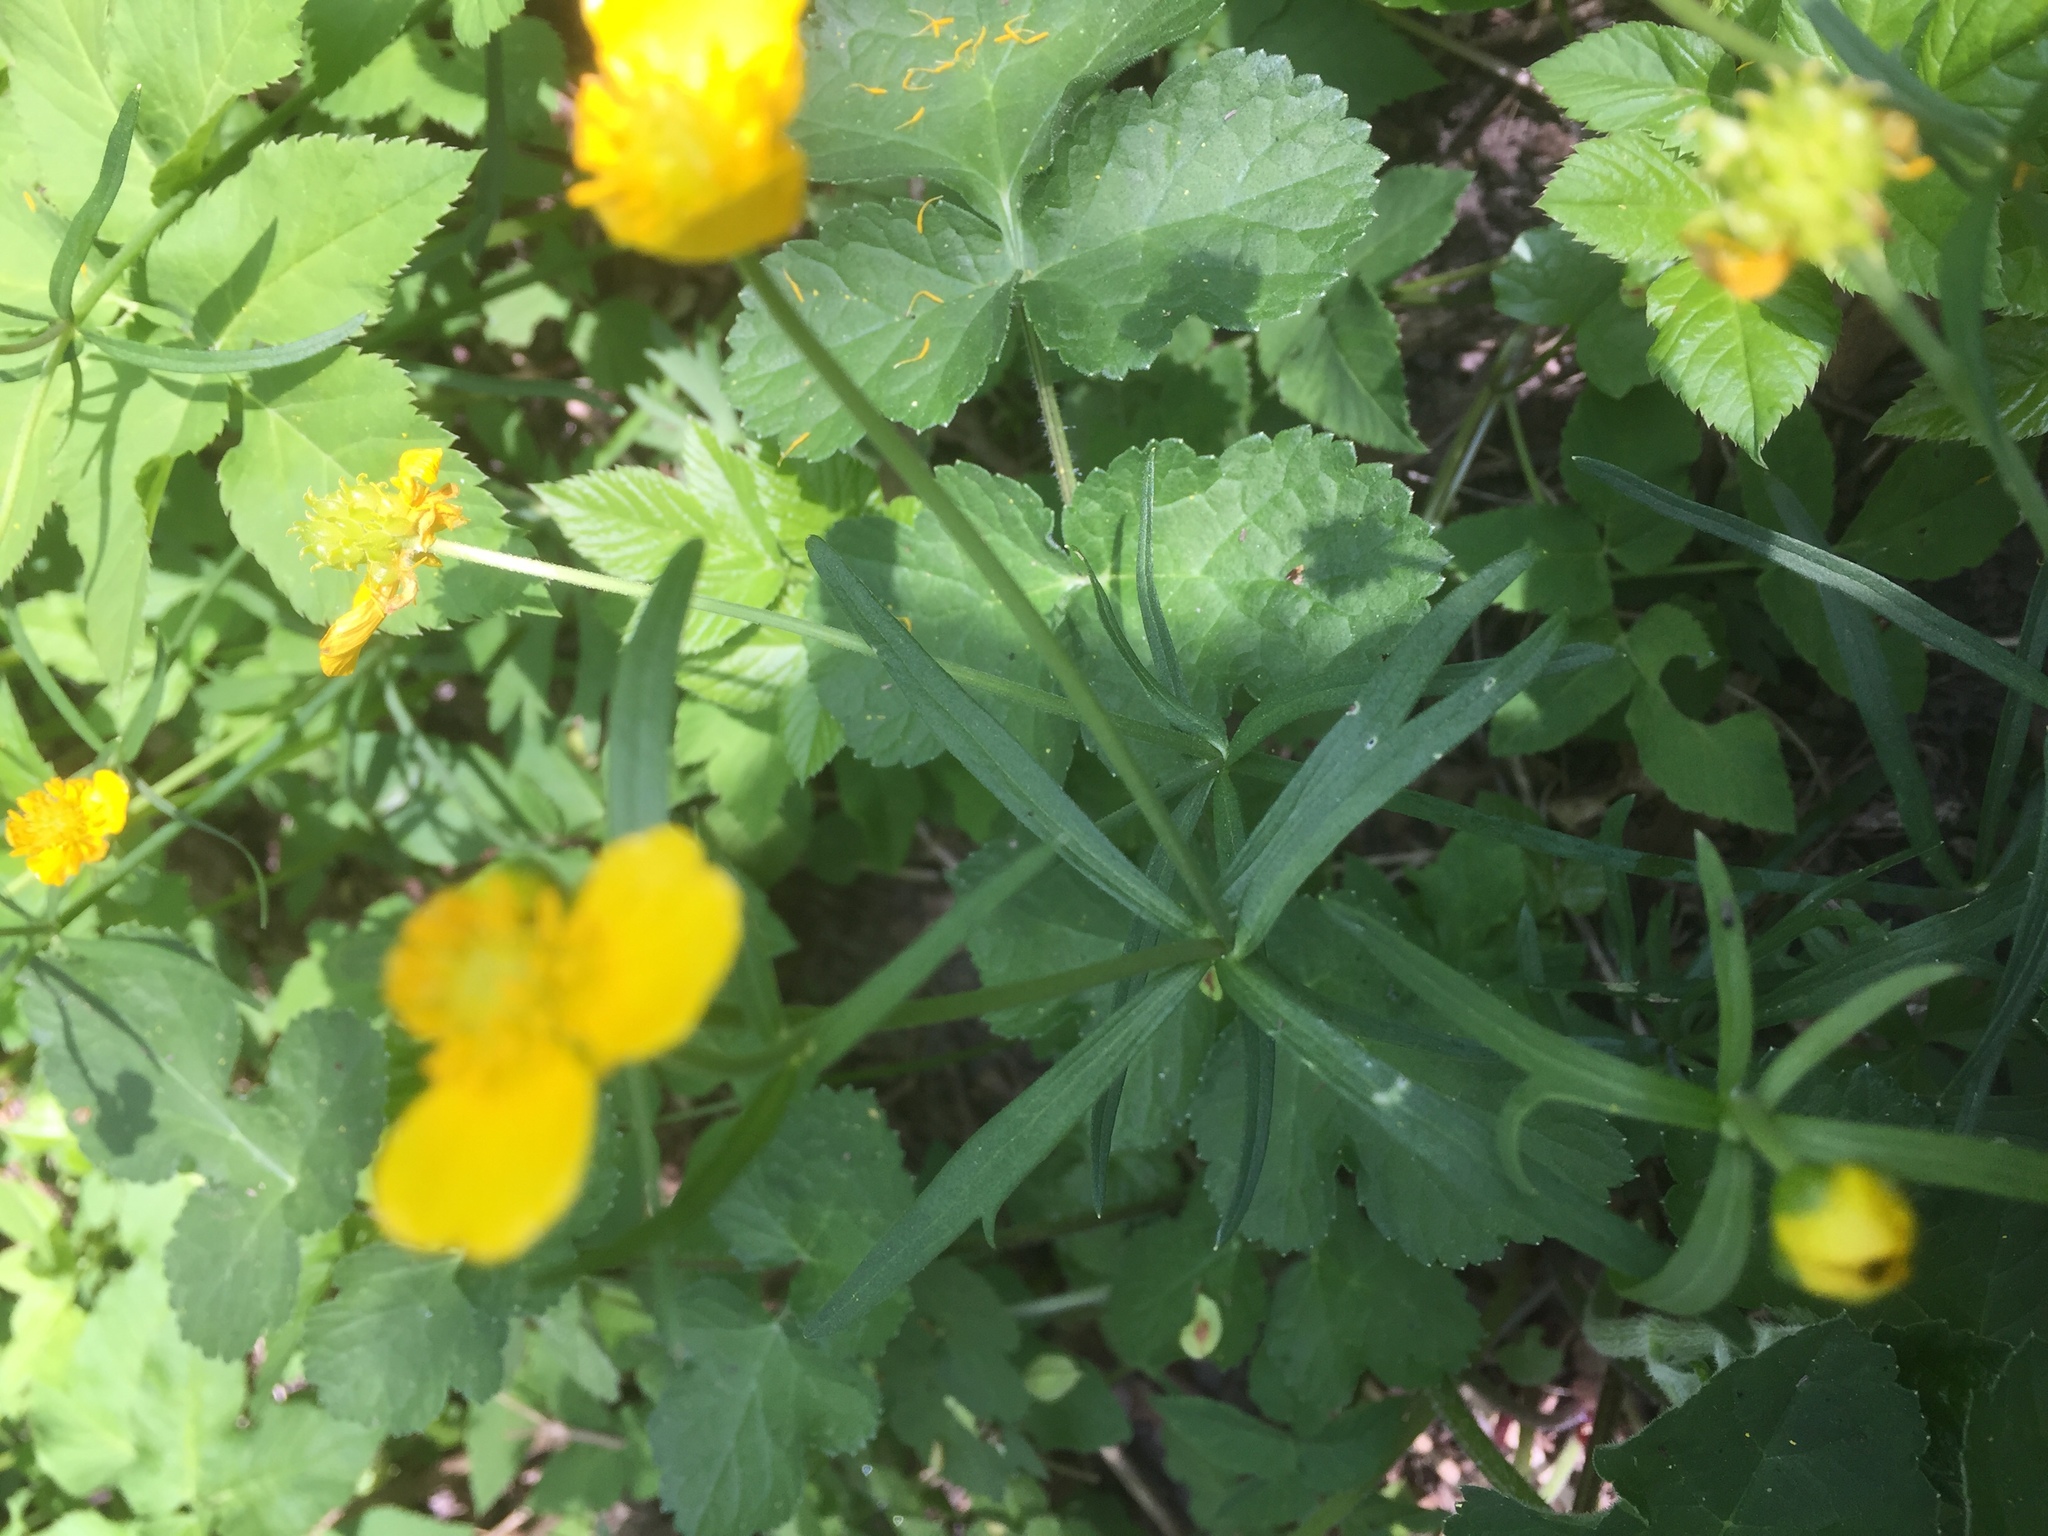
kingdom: Plantae
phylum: Tracheophyta
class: Magnoliopsida
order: Ranunculales
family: Ranunculaceae
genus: Ranunculus
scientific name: Ranunculus auricomus
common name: Goldilocks buttercup
